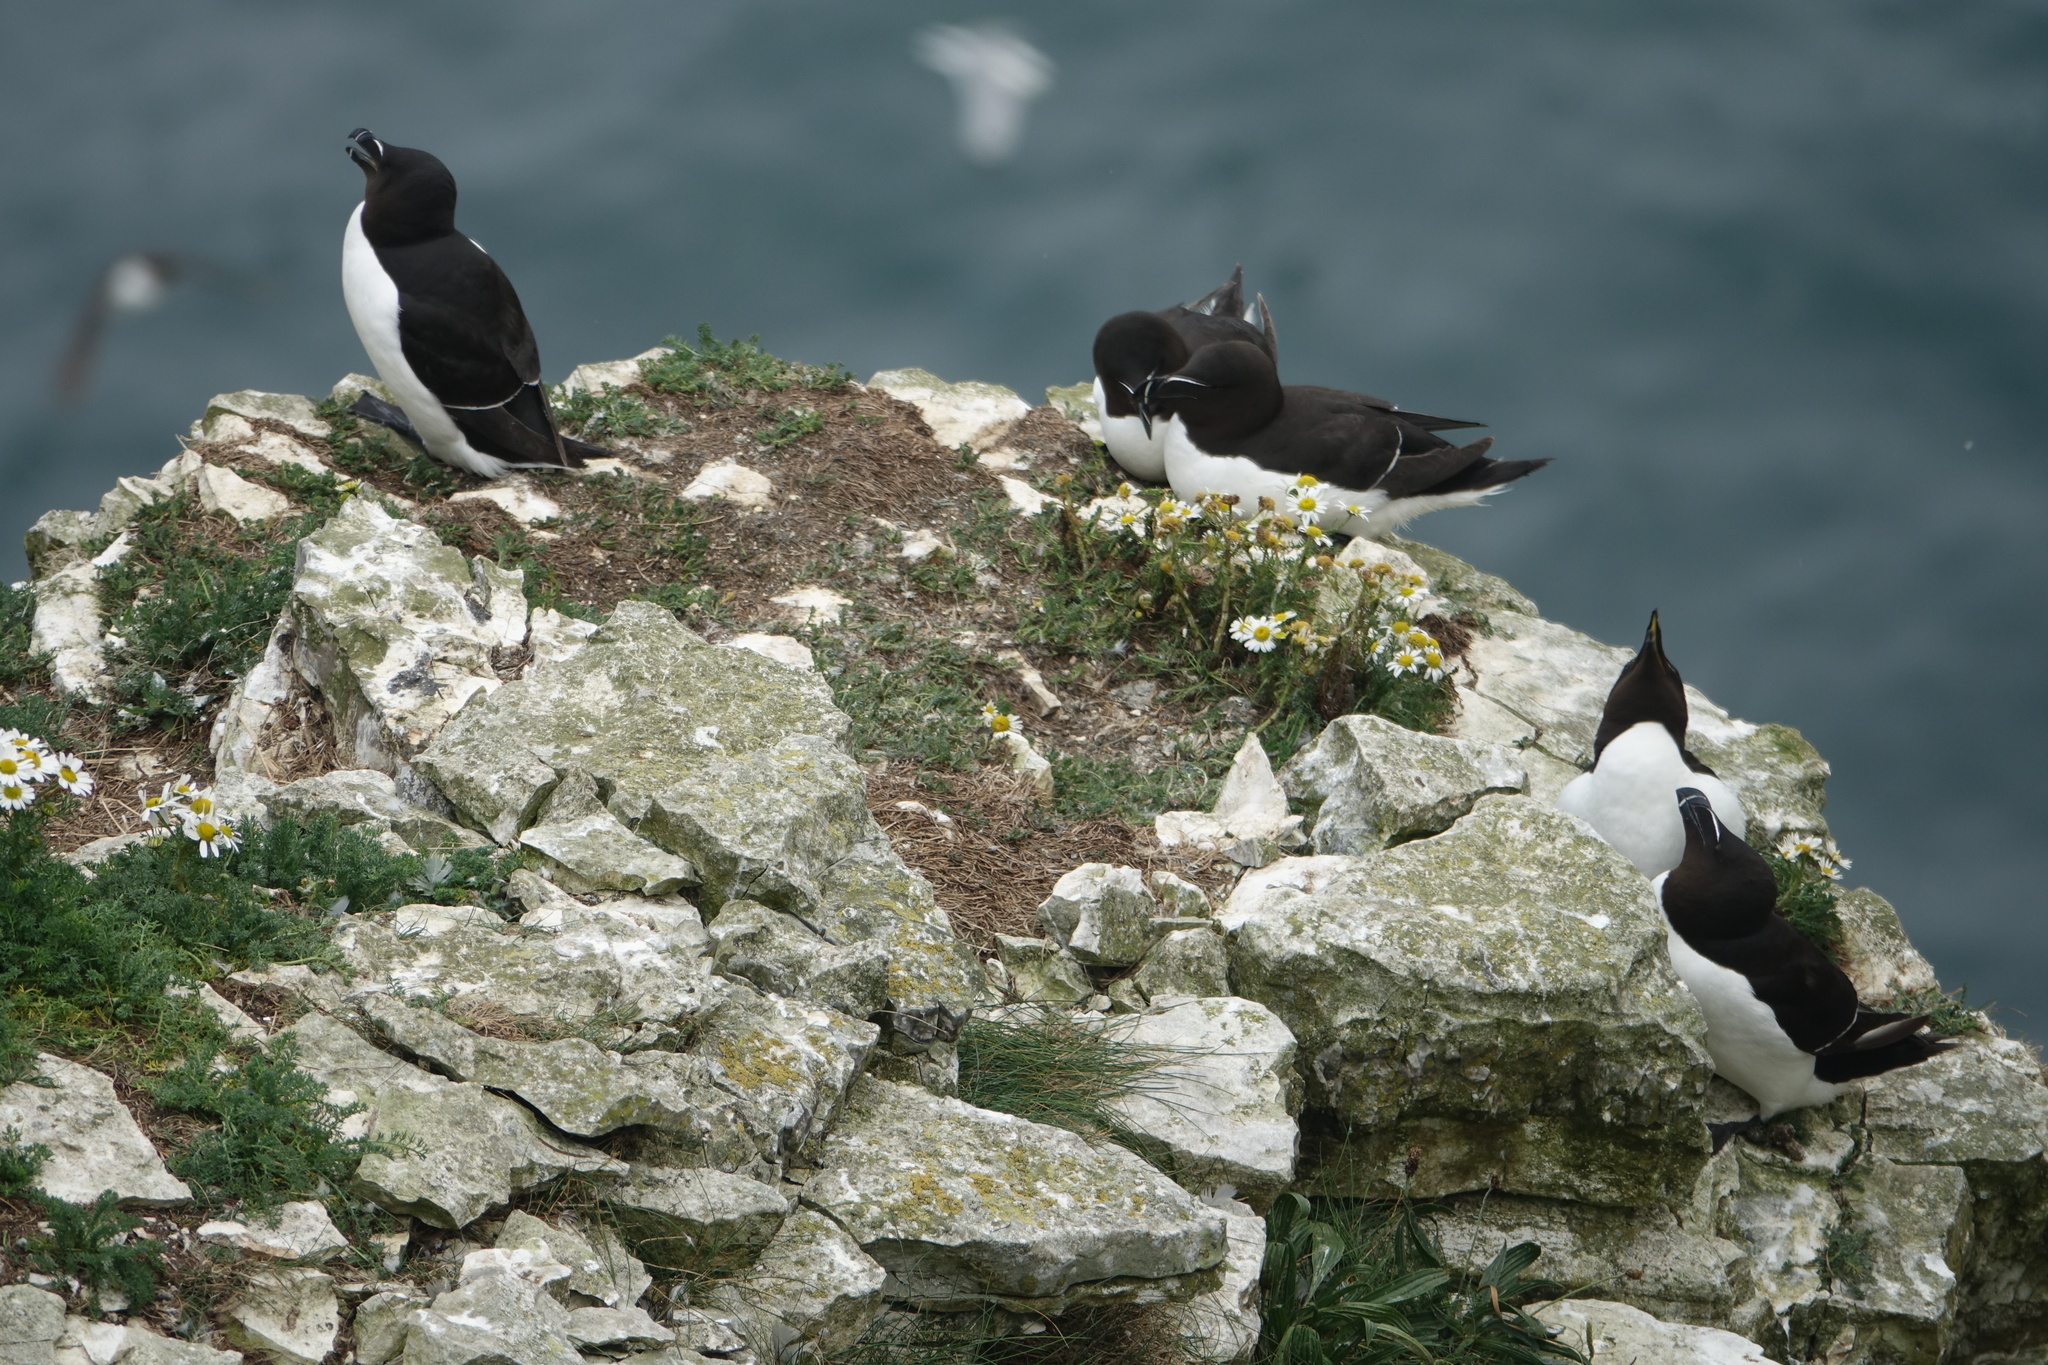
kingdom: Animalia
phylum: Chordata
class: Aves
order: Charadriiformes
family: Alcidae
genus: Alca
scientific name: Alca torda
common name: Razorbill
